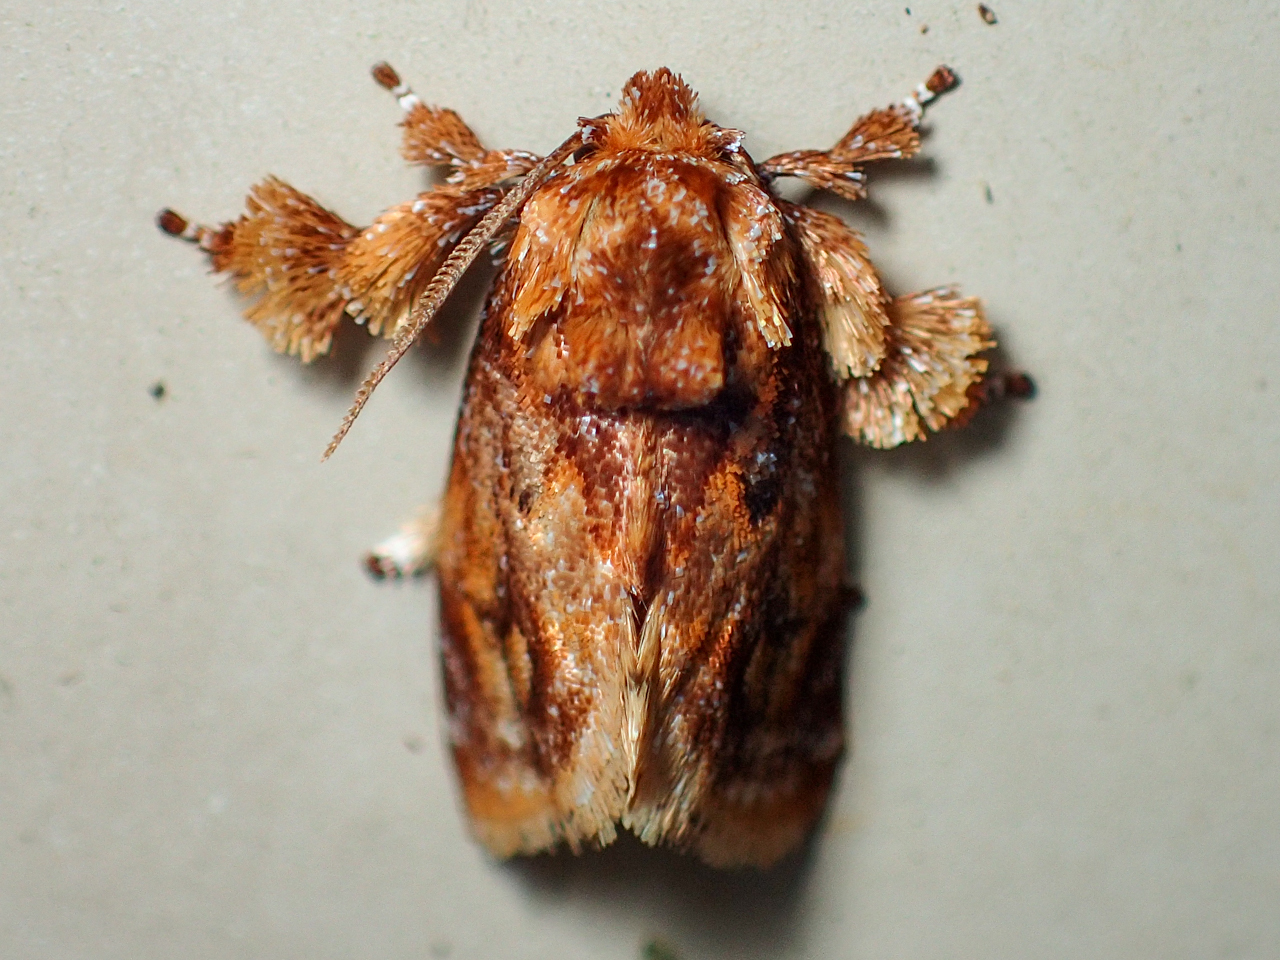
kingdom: Animalia
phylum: Arthropoda
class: Insecta
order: Lepidoptera
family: Limacodidae
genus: Isochaetes
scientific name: Isochaetes beutenmuelleri
